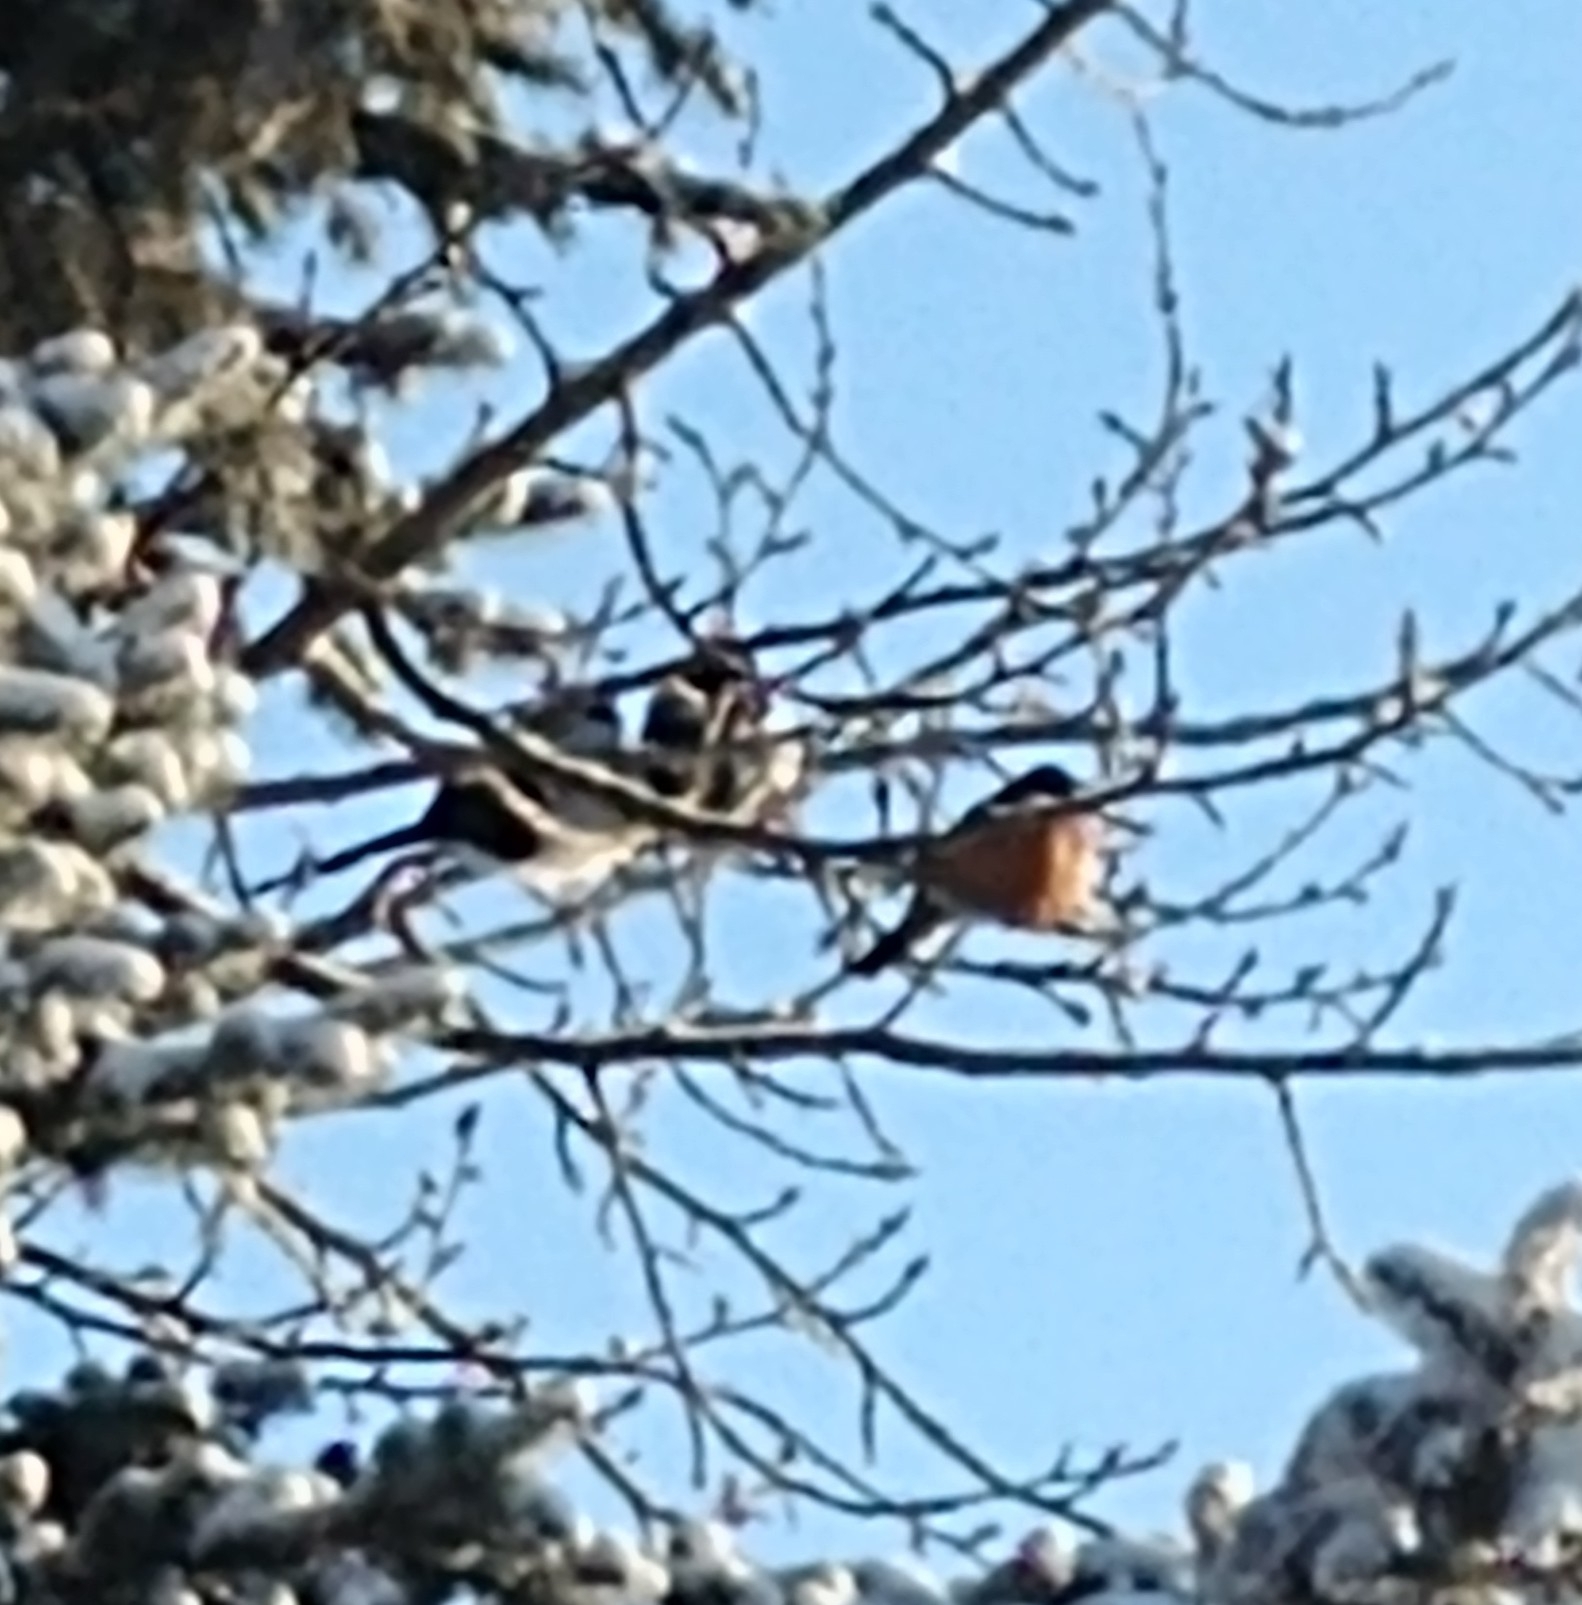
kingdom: Animalia
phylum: Chordata
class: Aves
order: Passeriformes
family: Turdidae
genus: Turdus
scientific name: Turdus migratorius
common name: American robin
